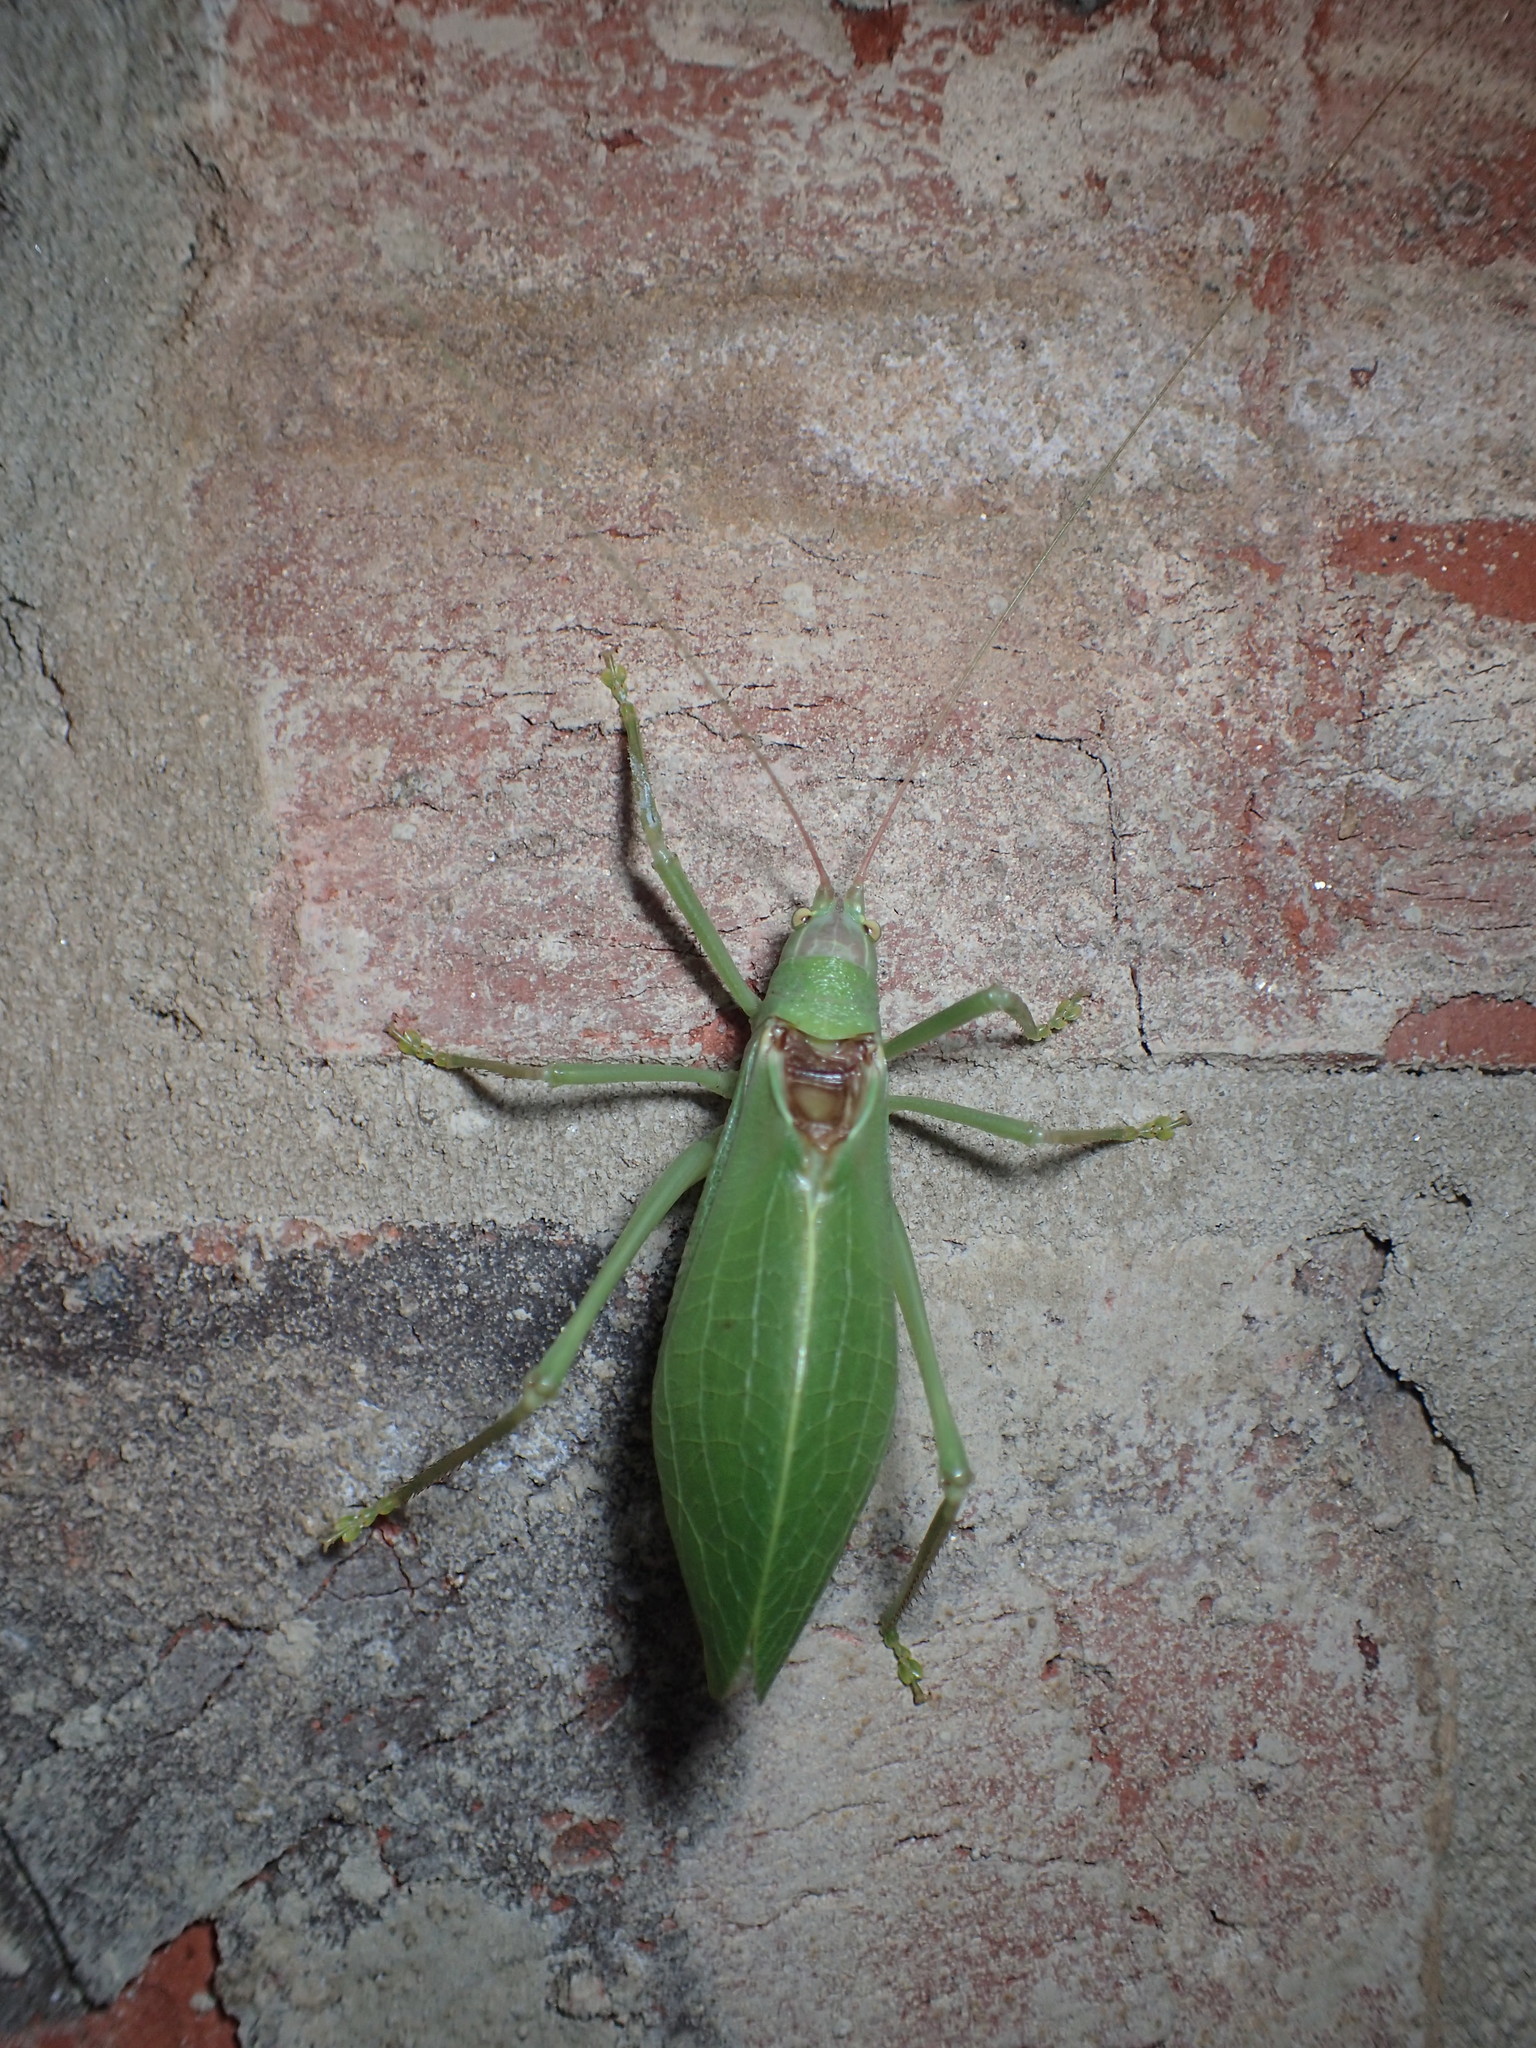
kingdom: Animalia
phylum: Arthropoda
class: Insecta
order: Orthoptera
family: Tettigoniidae
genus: Pterophylla
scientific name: Pterophylla camellifolia
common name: Common true katydid
